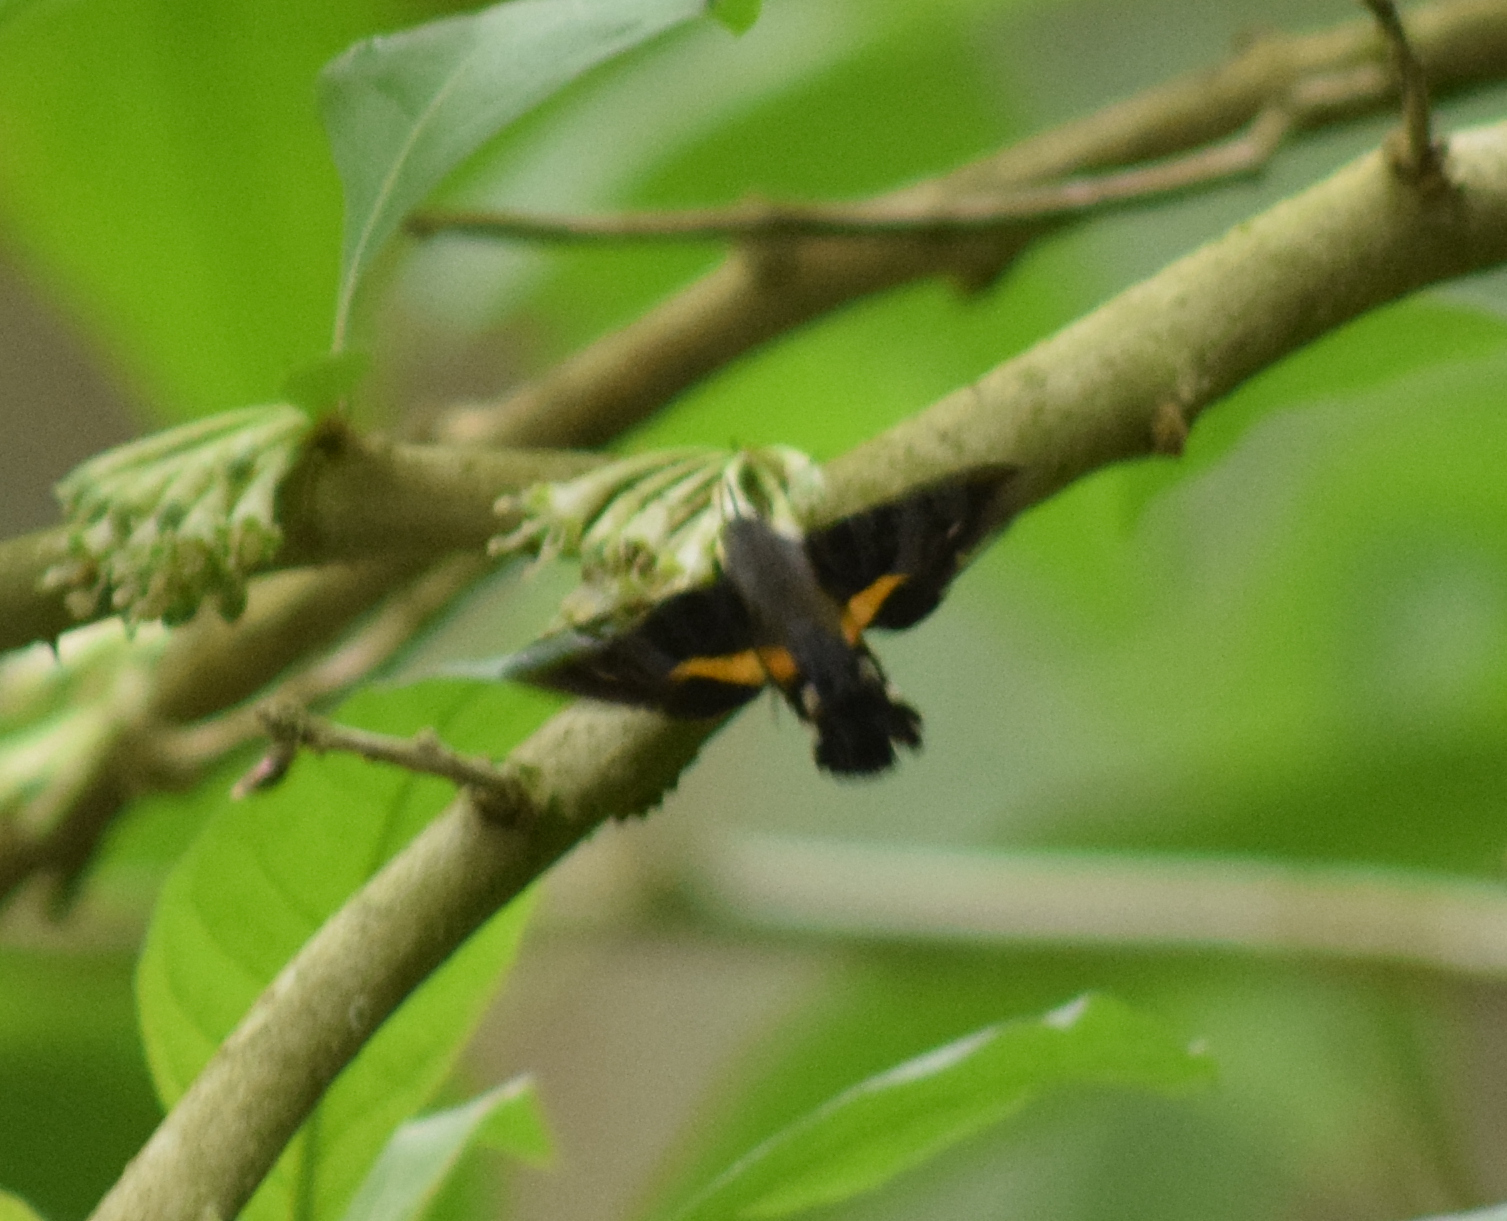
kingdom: Animalia
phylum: Arthropoda
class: Insecta
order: Lepidoptera
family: Sphingidae
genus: Aellopos
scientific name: Aellopos ceculus
